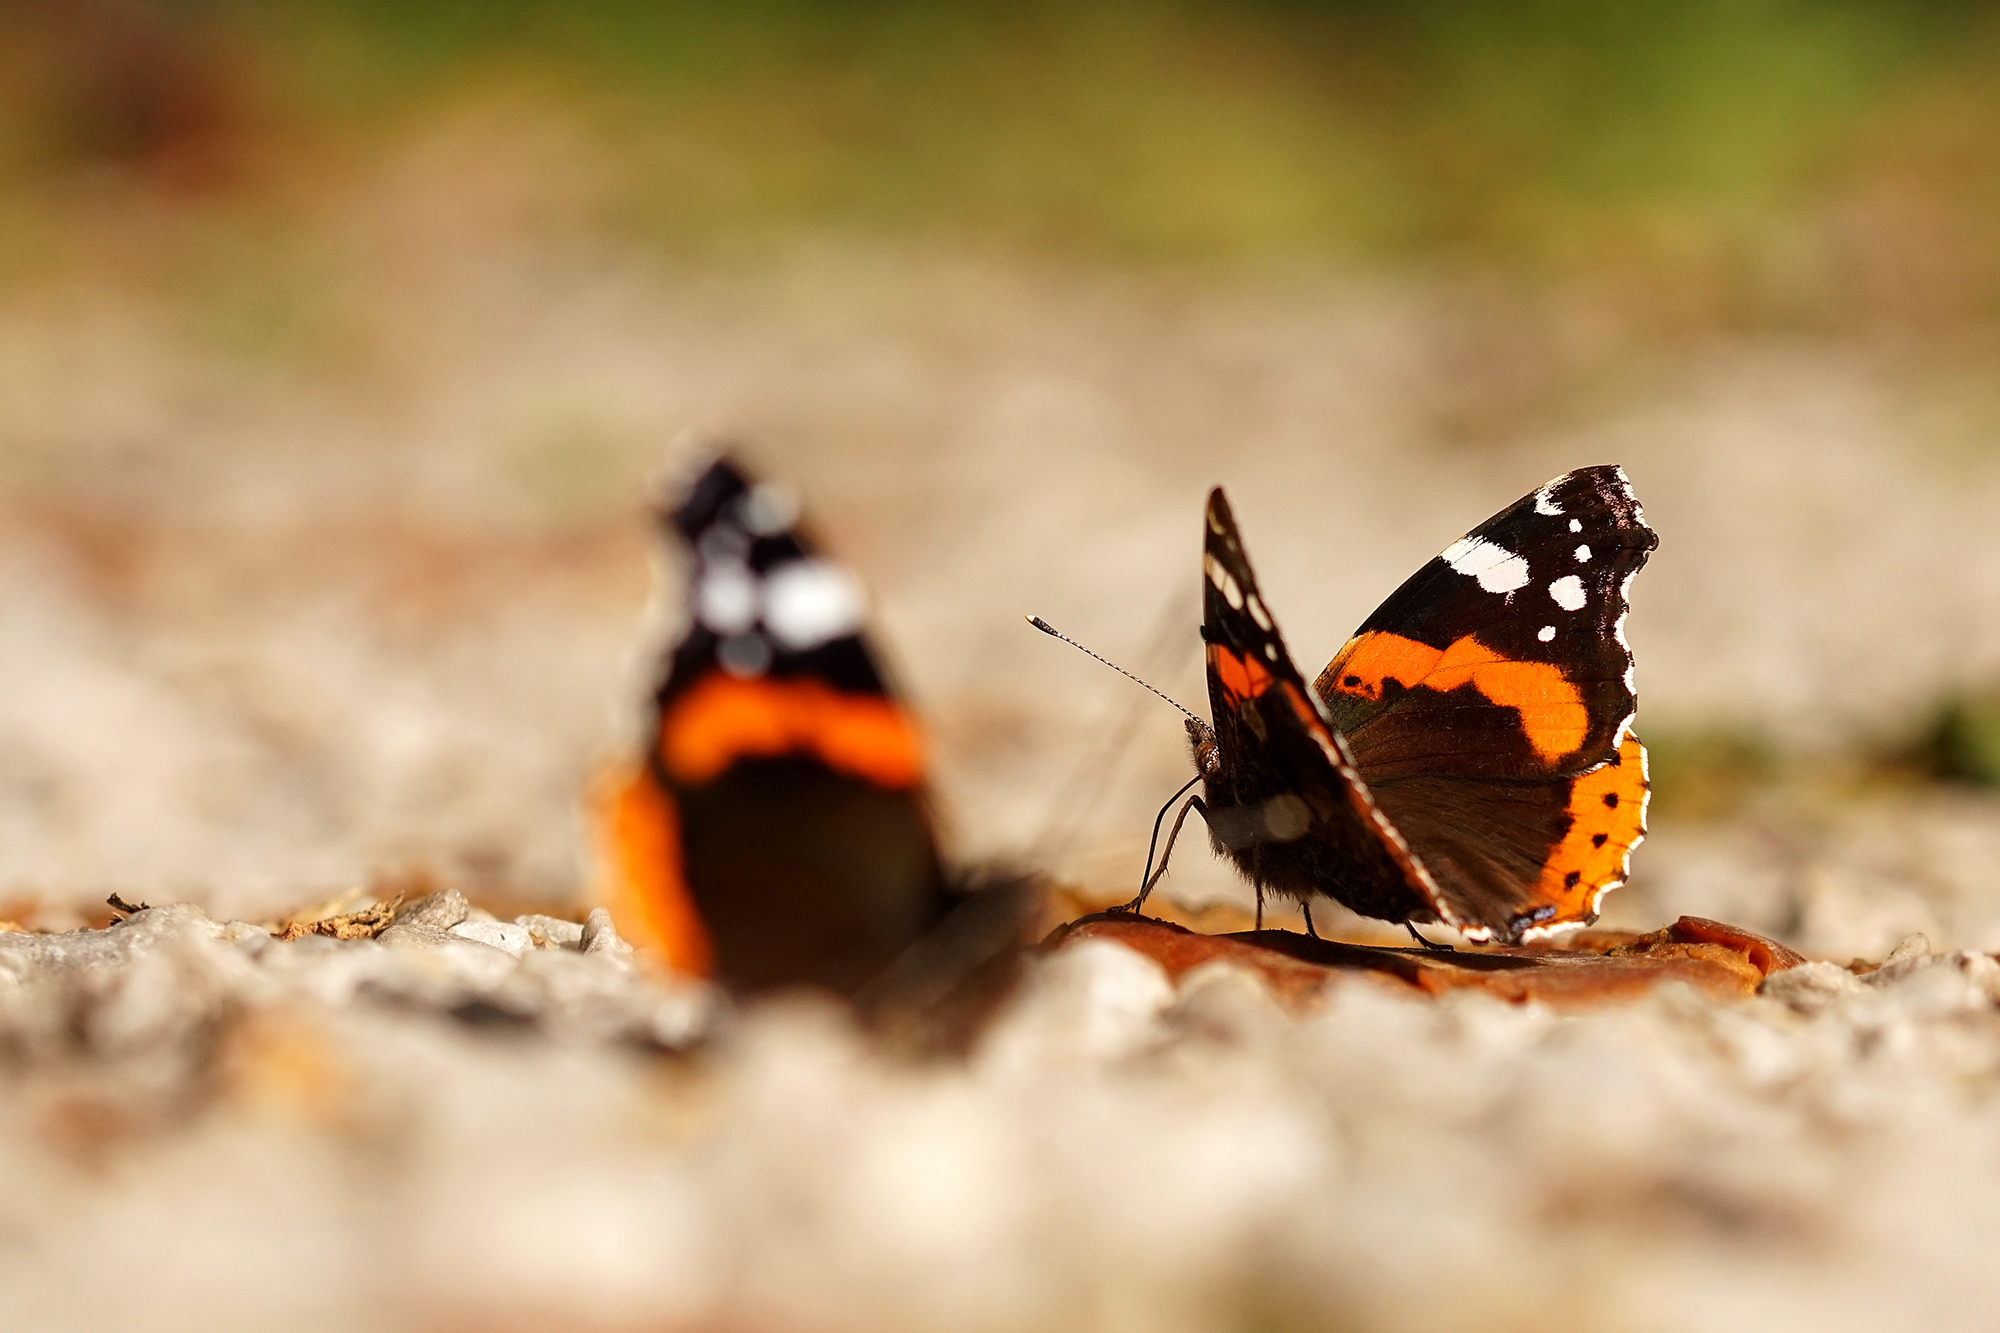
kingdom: Animalia
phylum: Arthropoda
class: Insecta
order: Lepidoptera
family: Nymphalidae
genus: Vanessa
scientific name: Vanessa atalanta
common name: Red admiral
